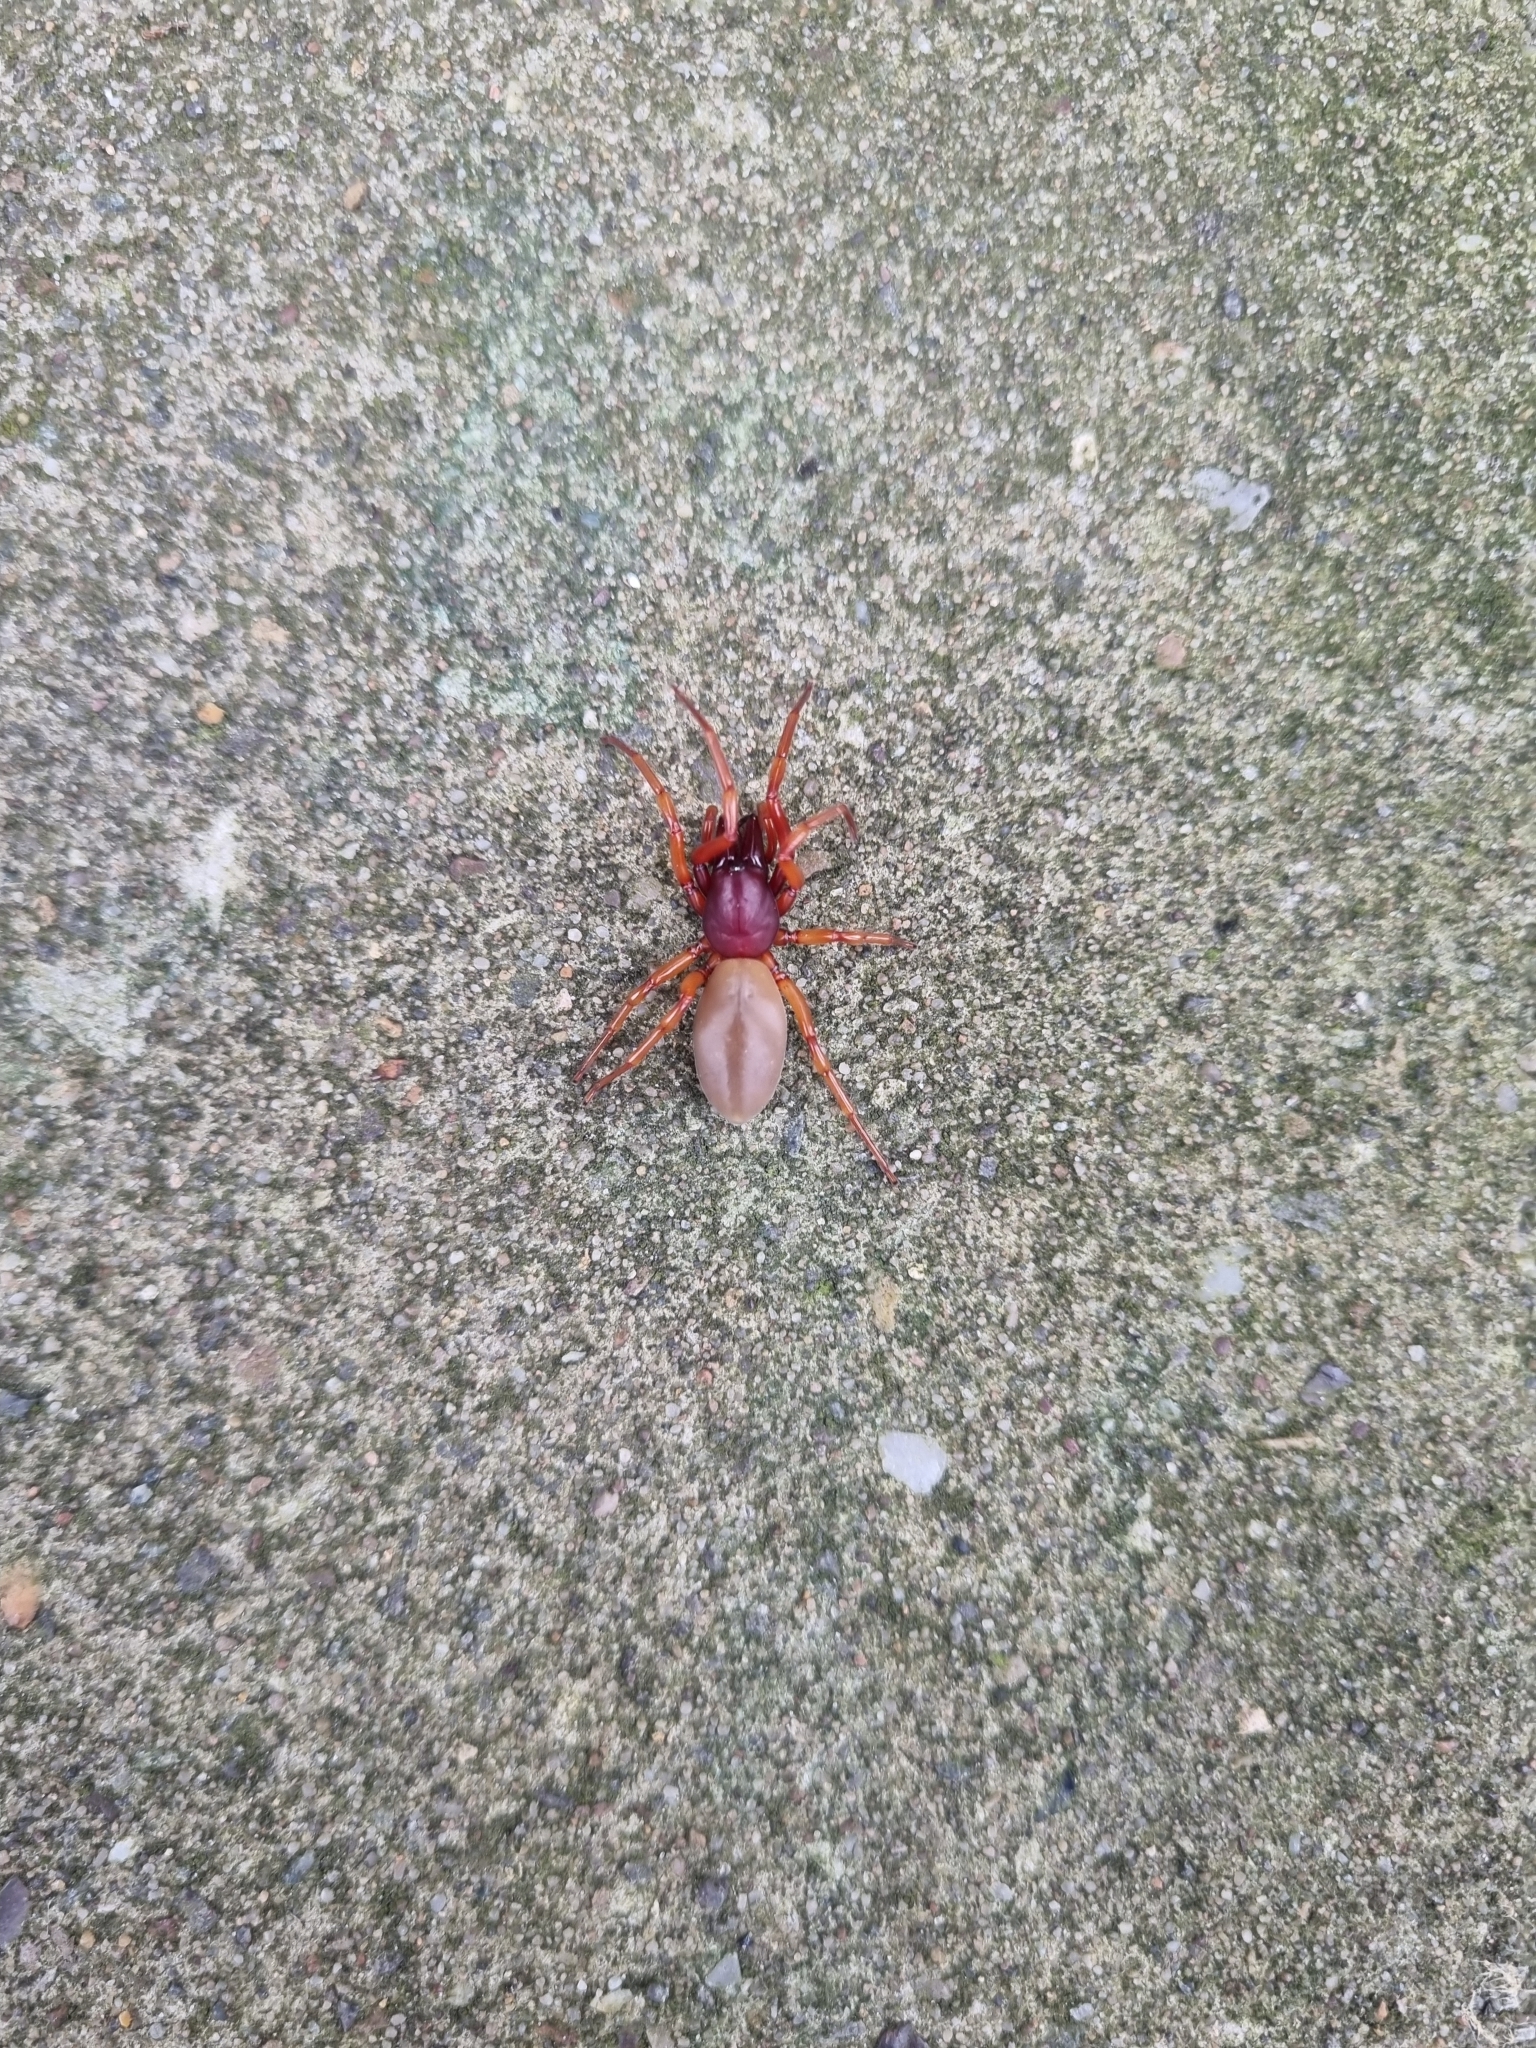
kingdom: Animalia
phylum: Arthropoda
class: Arachnida
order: Araneae
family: Dysderidae
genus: Dysdera
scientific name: Dysdera crocata
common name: Woodlouse spider
